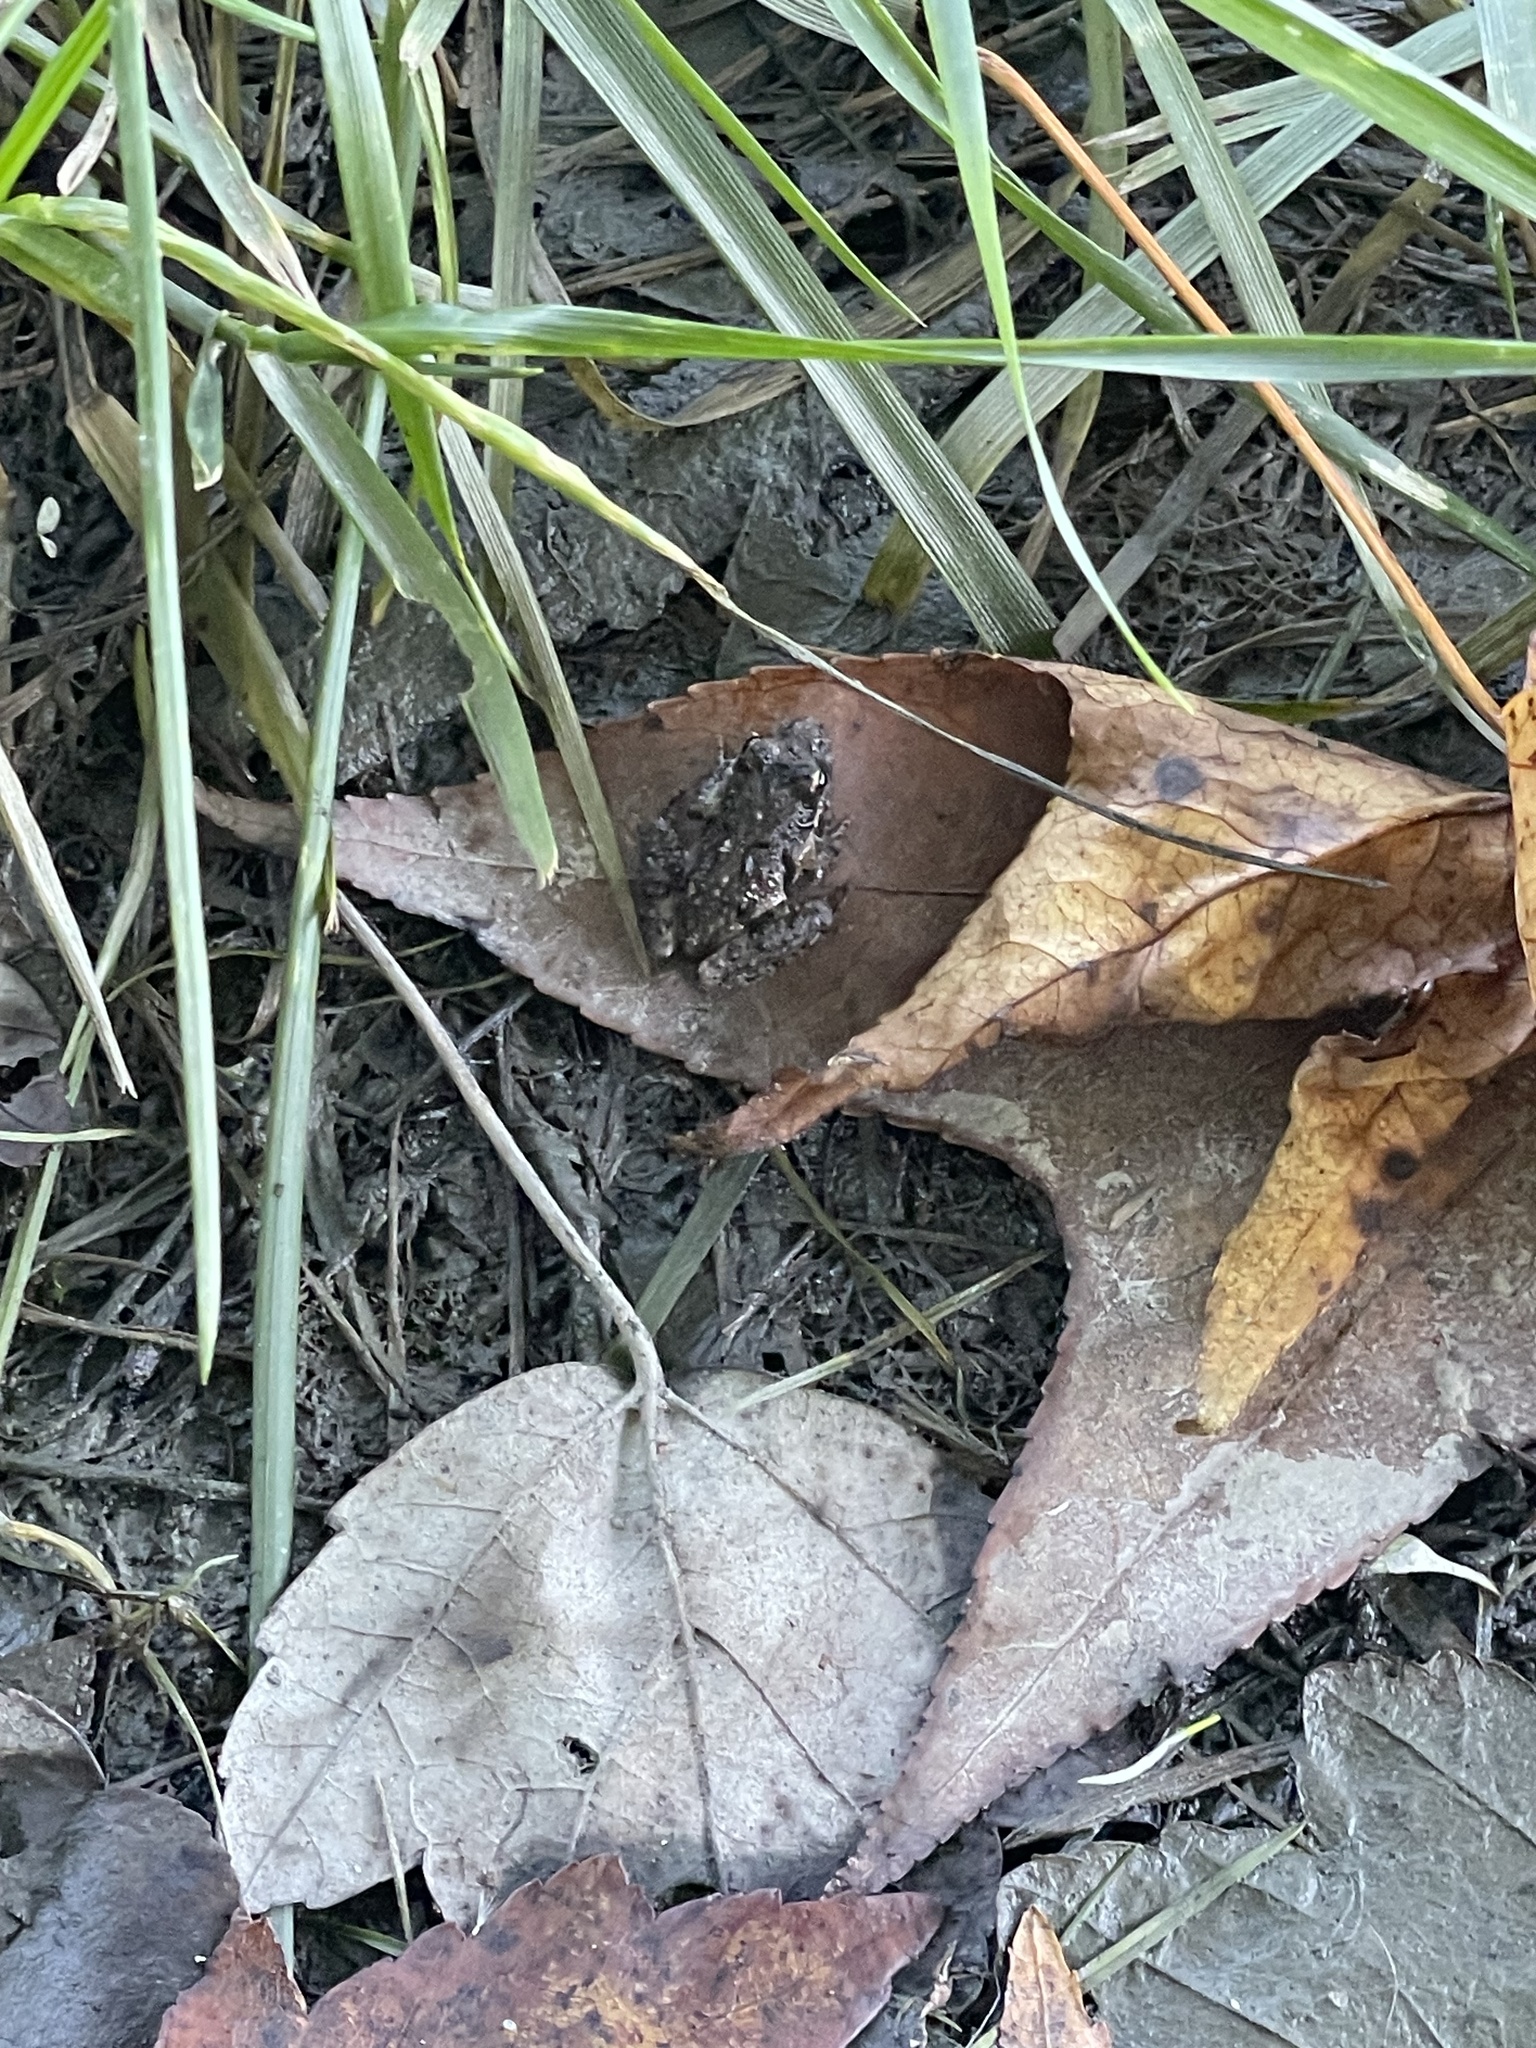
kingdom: Animalia
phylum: Chordata
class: Amphibia
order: Anura
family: Hylidae
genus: Acris
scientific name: Acris crepitans
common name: Northern cricket frog
